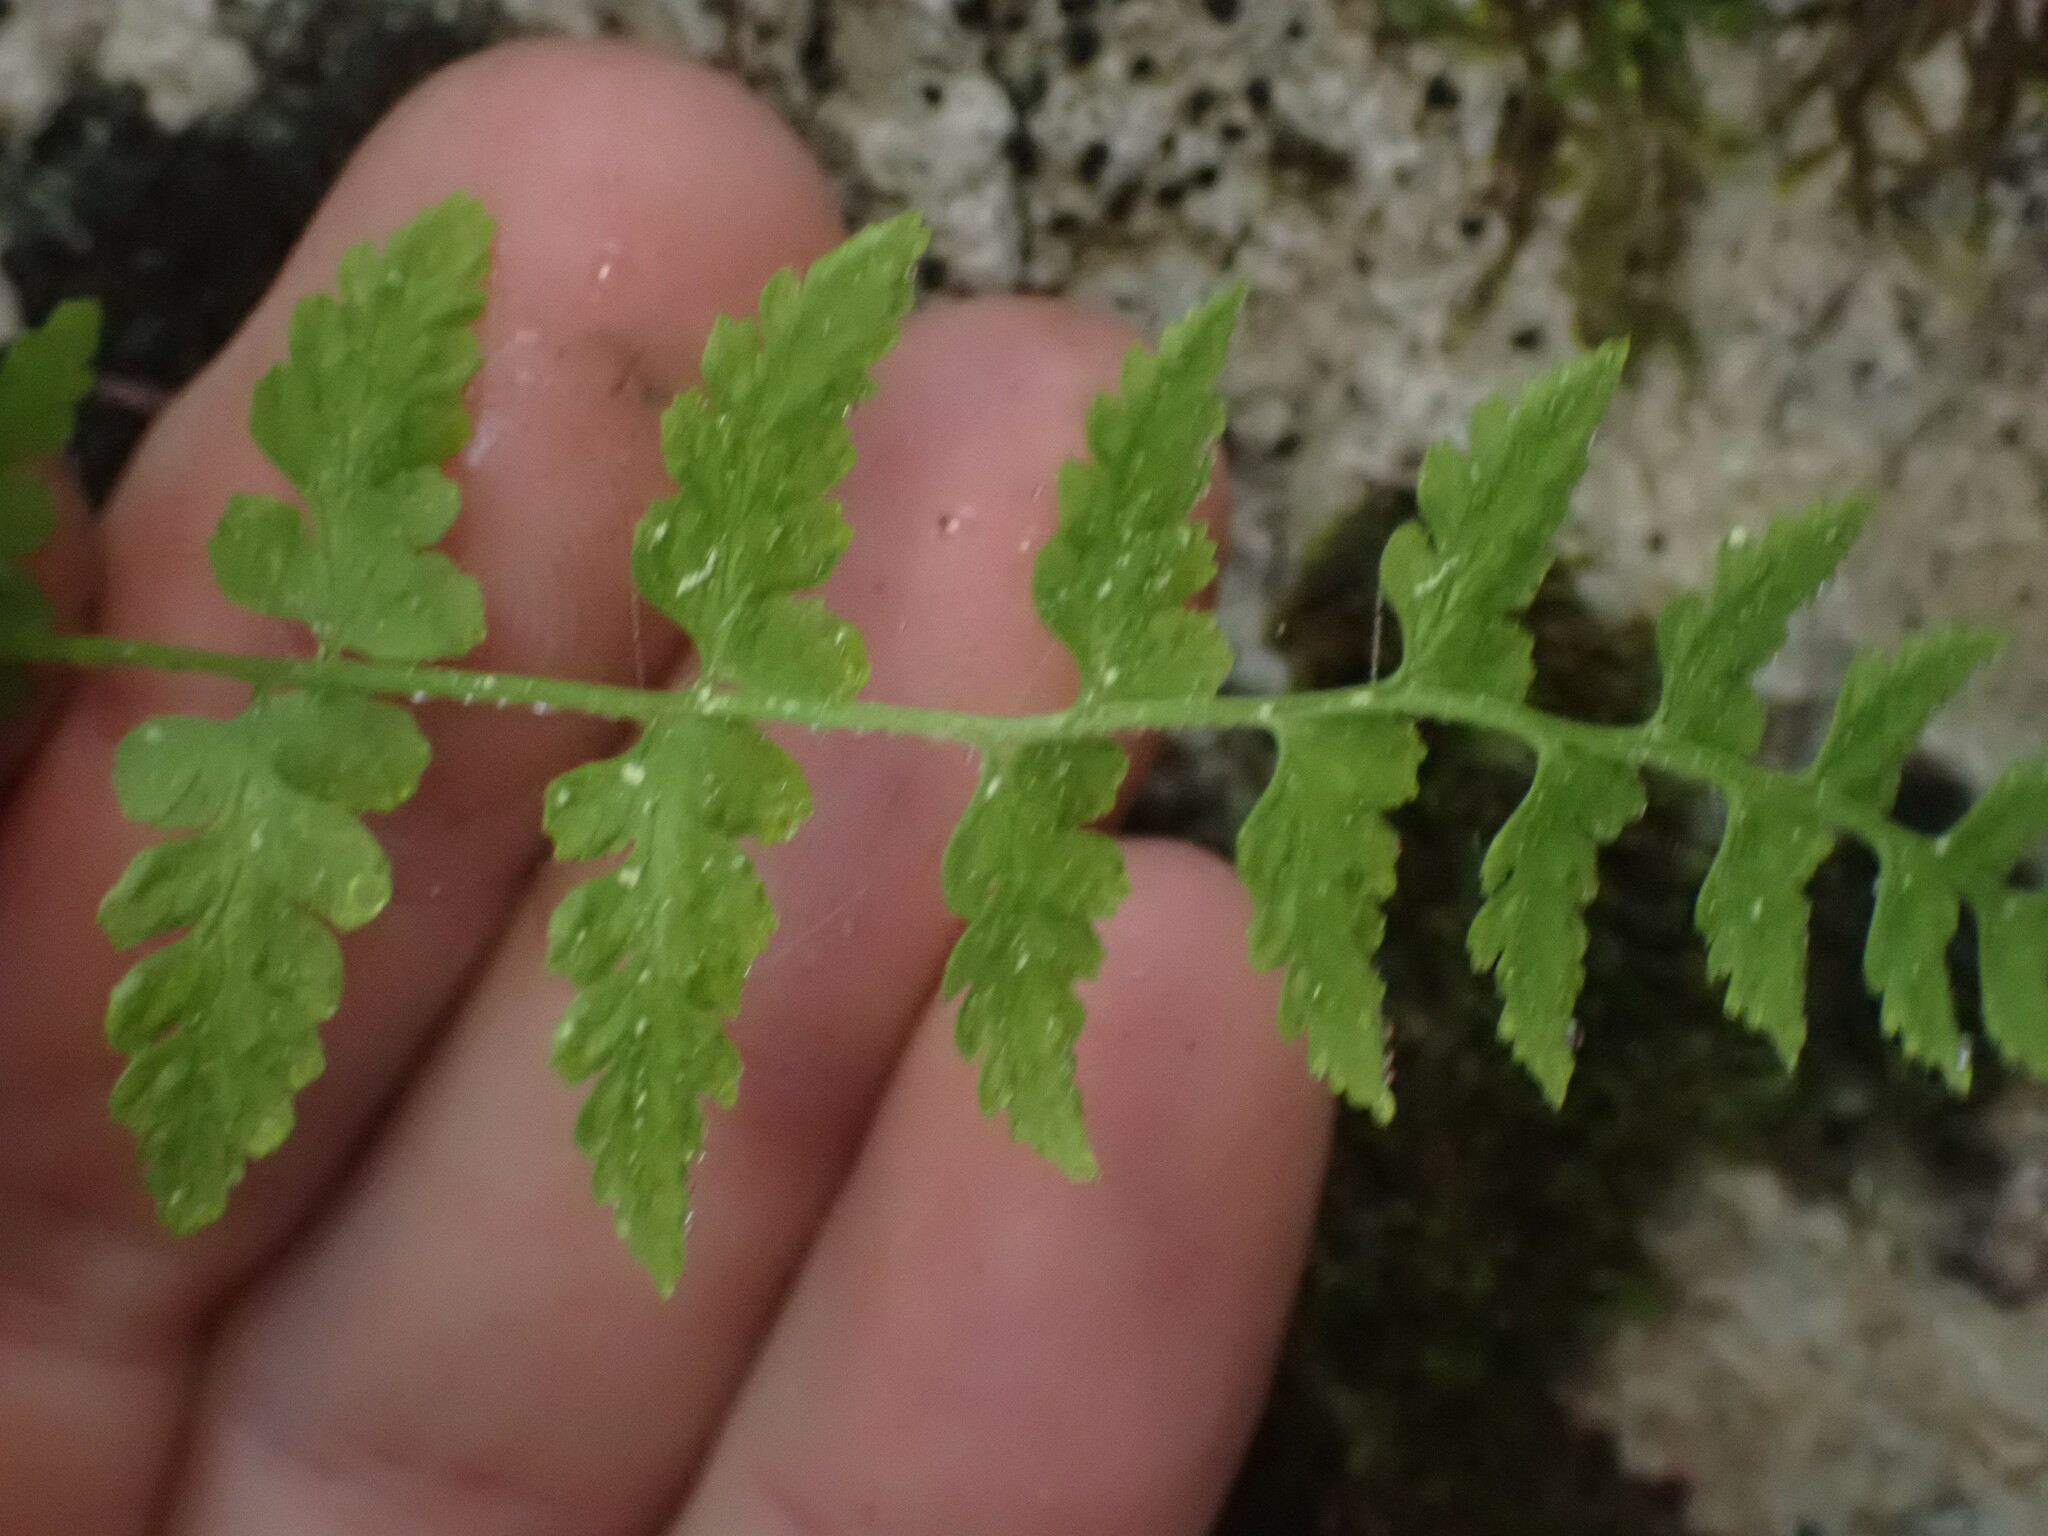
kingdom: Plantae
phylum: Tracheophyta
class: Polypodiopsida
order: Polypodiales
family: Cystopteridaceae
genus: Cystopteris
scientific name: Cystopteris fragilis
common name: Brittle bladder fern
